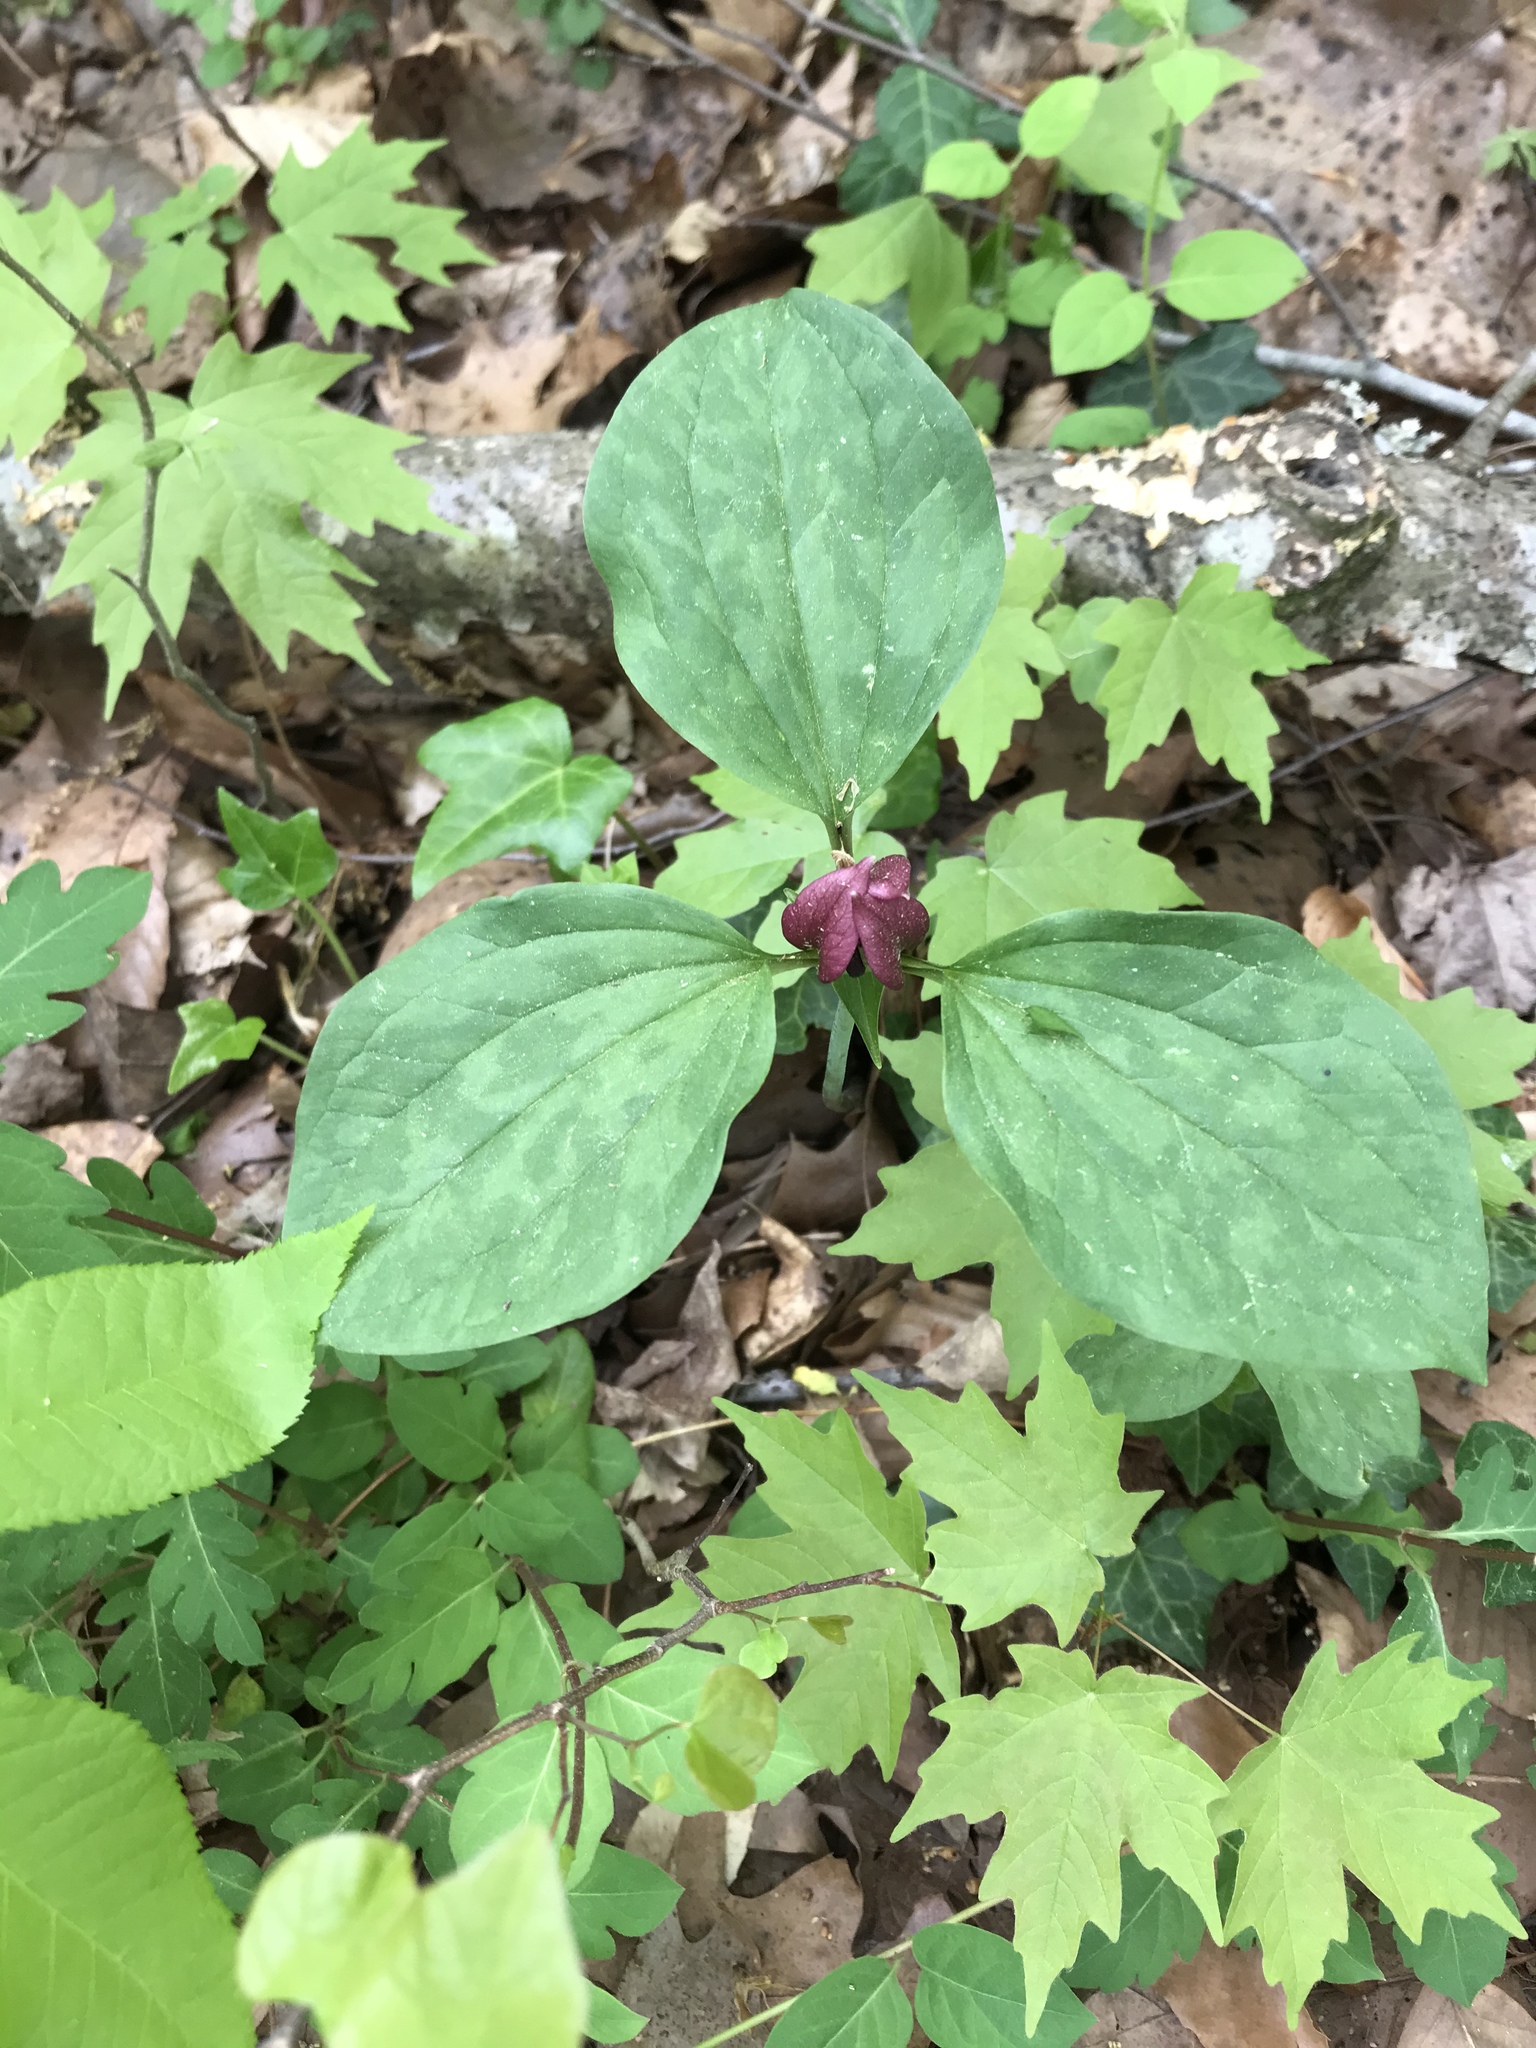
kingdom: Plantae
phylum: Tracheophyta
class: Liliopsida
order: Liliales
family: Melanthiaceae
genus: Trillium
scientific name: Trillium recurvatum
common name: Bloody butcher
